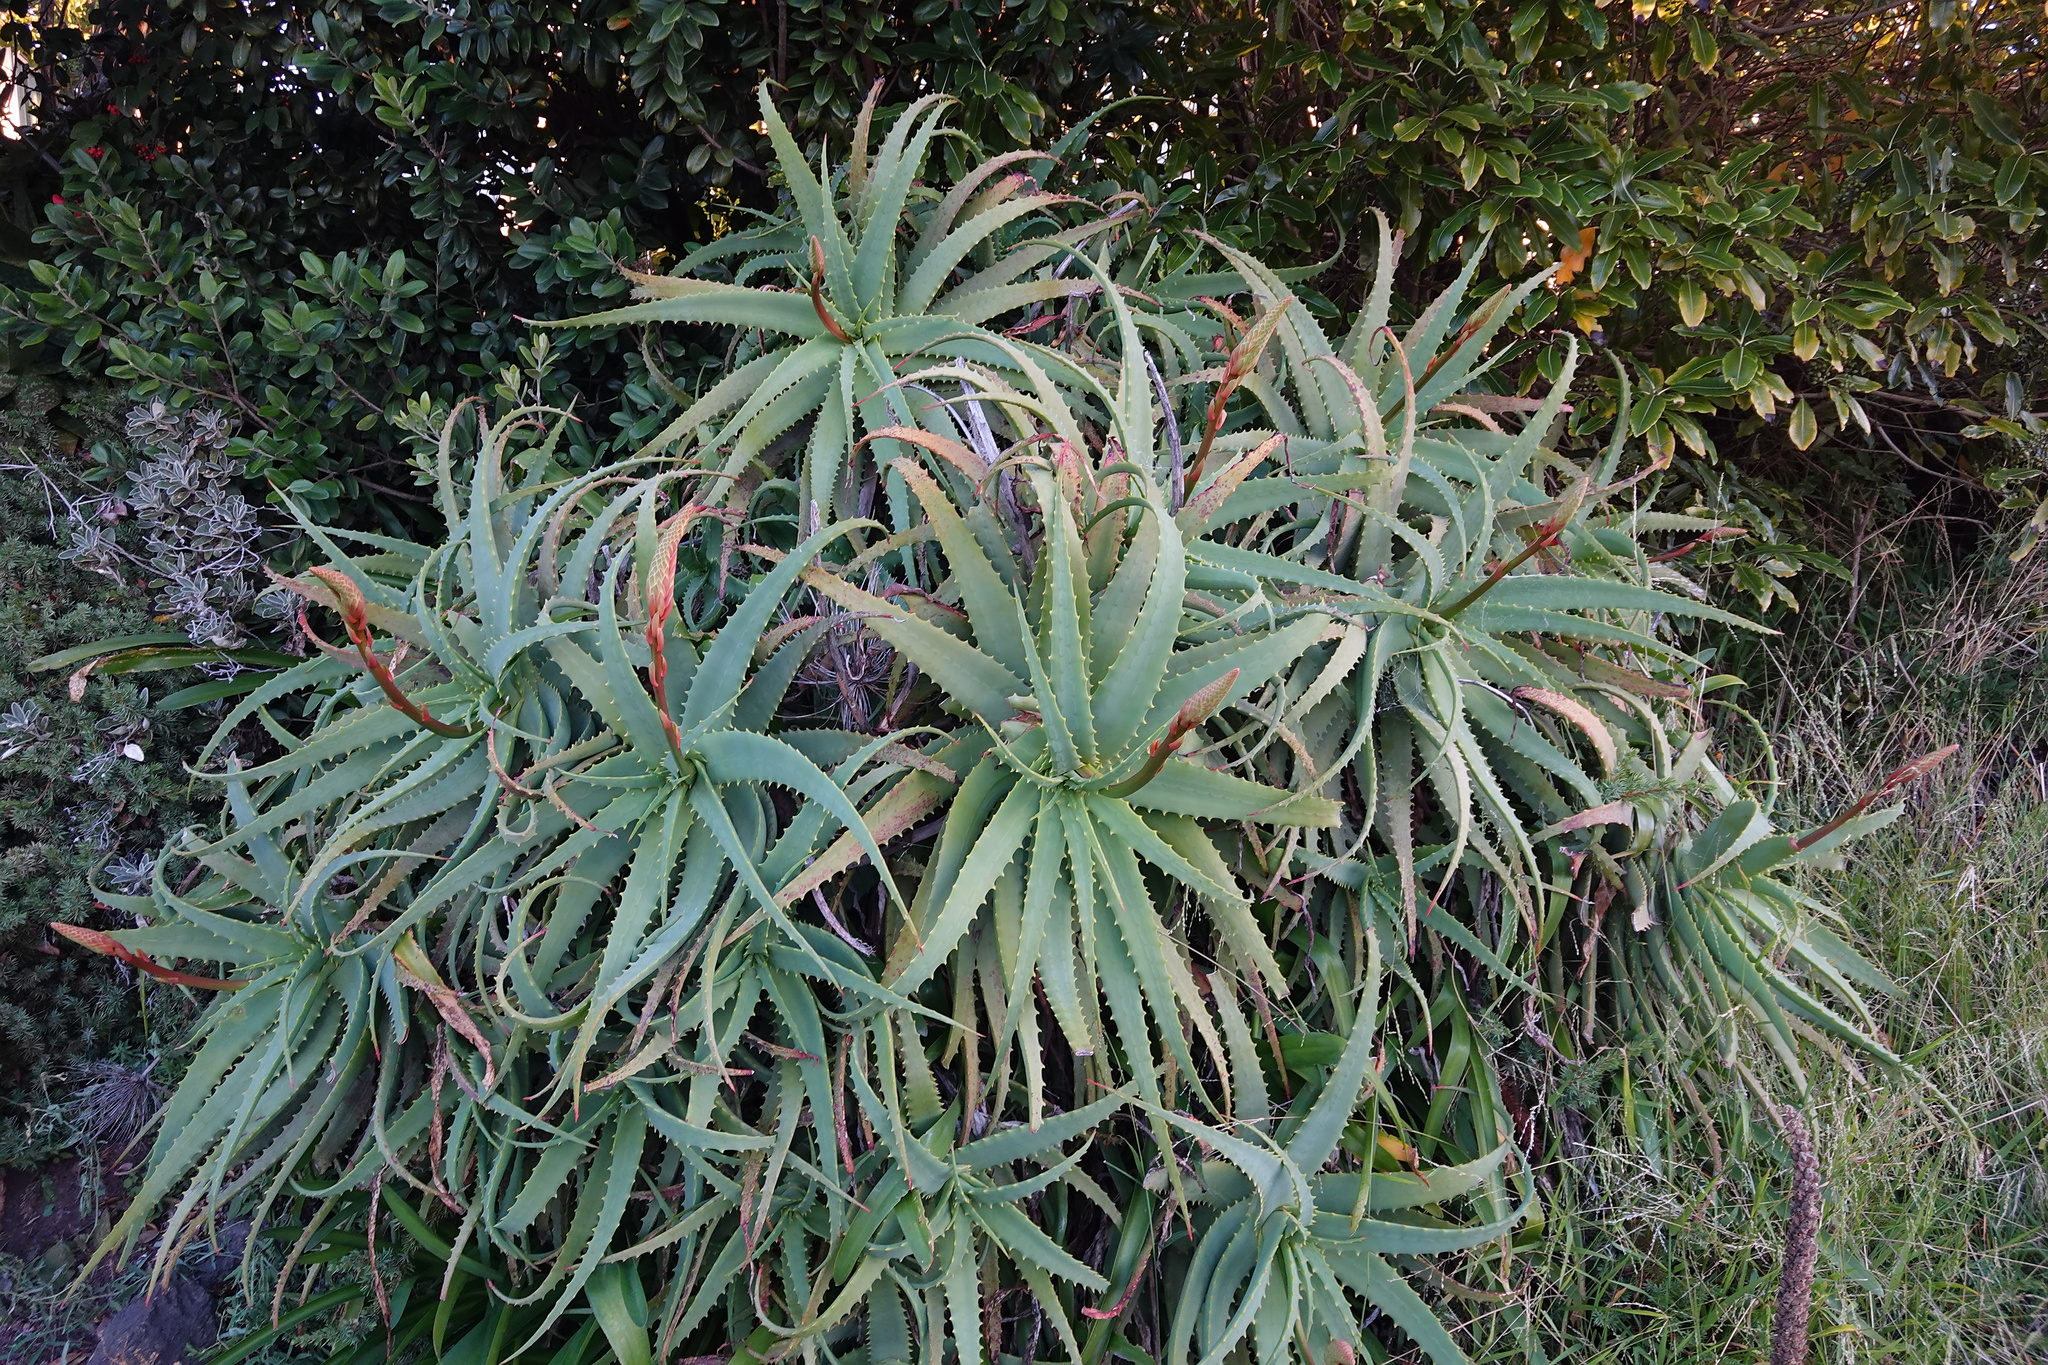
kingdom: Plantae
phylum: Tracheophyta
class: Liliopsida
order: Asparagales
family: Asphodelaceae
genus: Aloe
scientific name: Aloe arborescens
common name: Candelabra aloe
